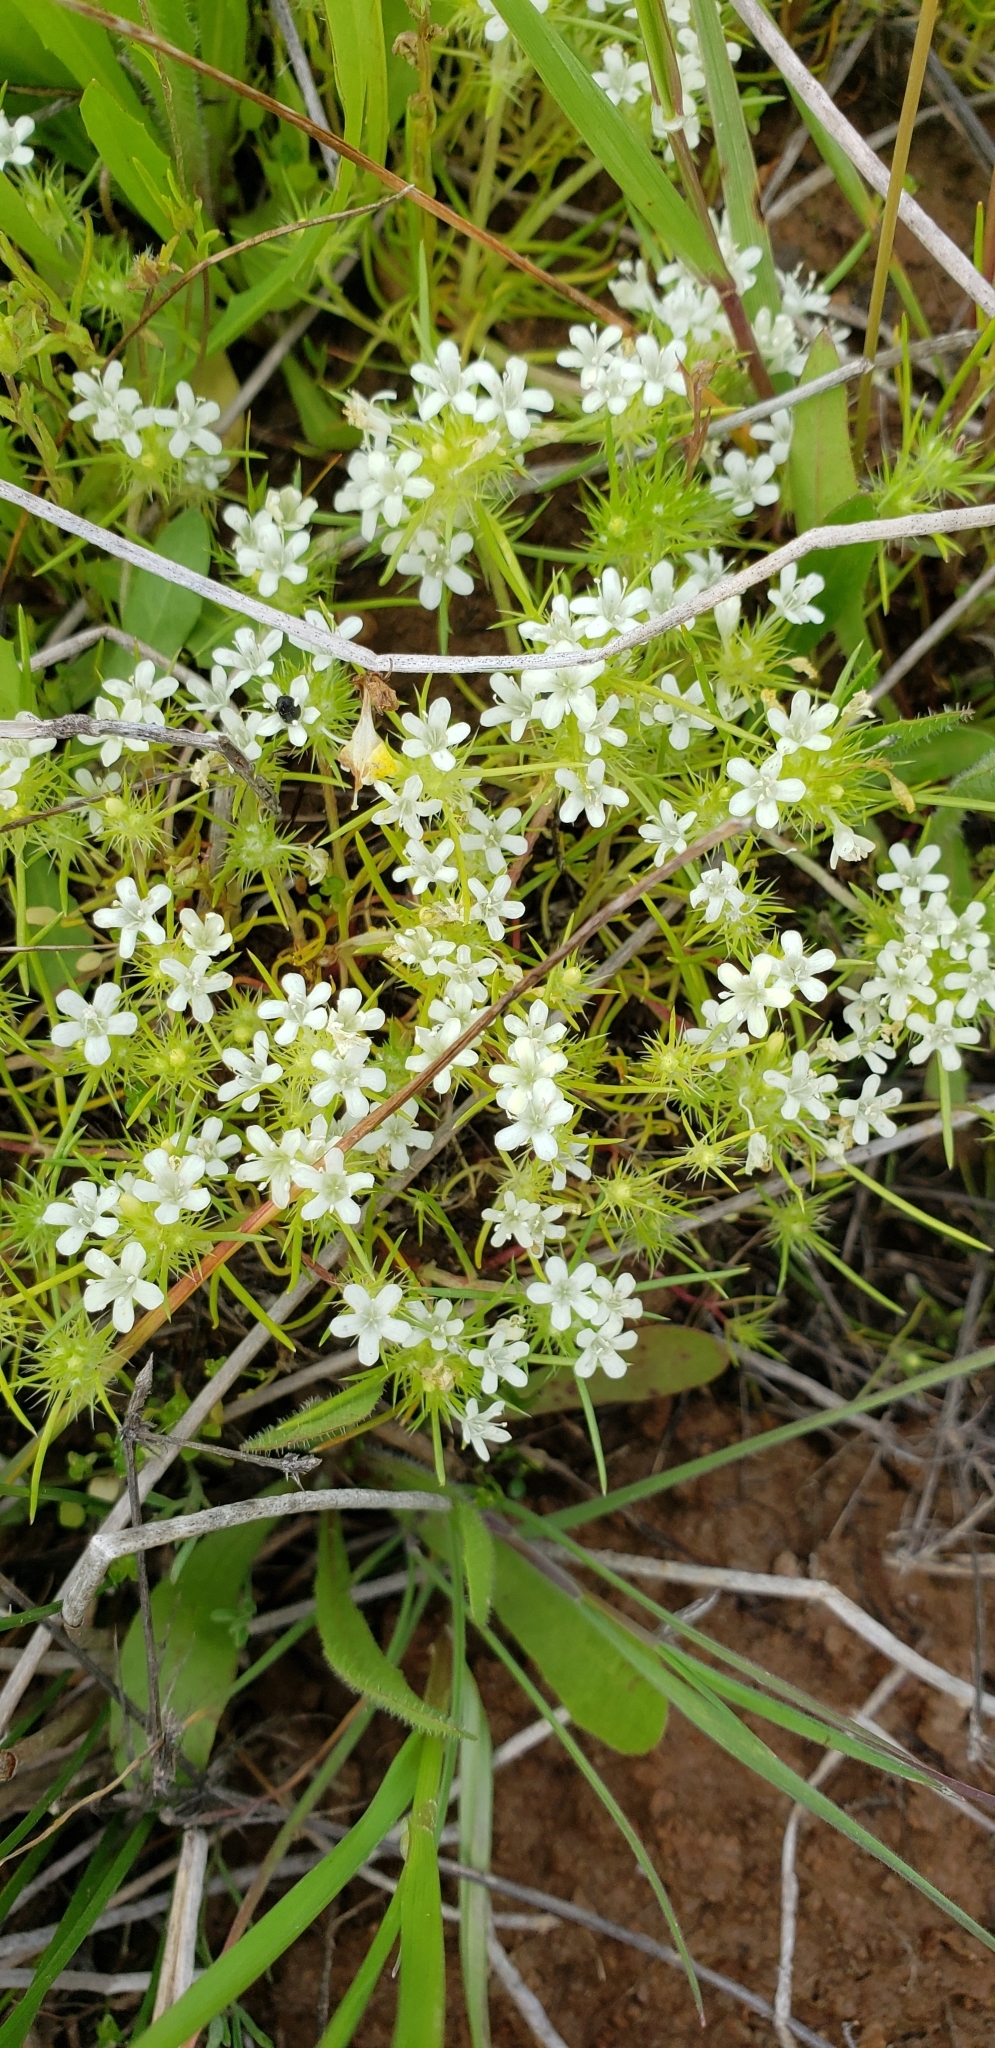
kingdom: Plantae
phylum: Tracheophyta
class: Magnoliopsida
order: Ericales
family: Polemoniaceae
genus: Navarretia
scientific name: Navarretia leucocephala
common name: White-flowered navarretia
